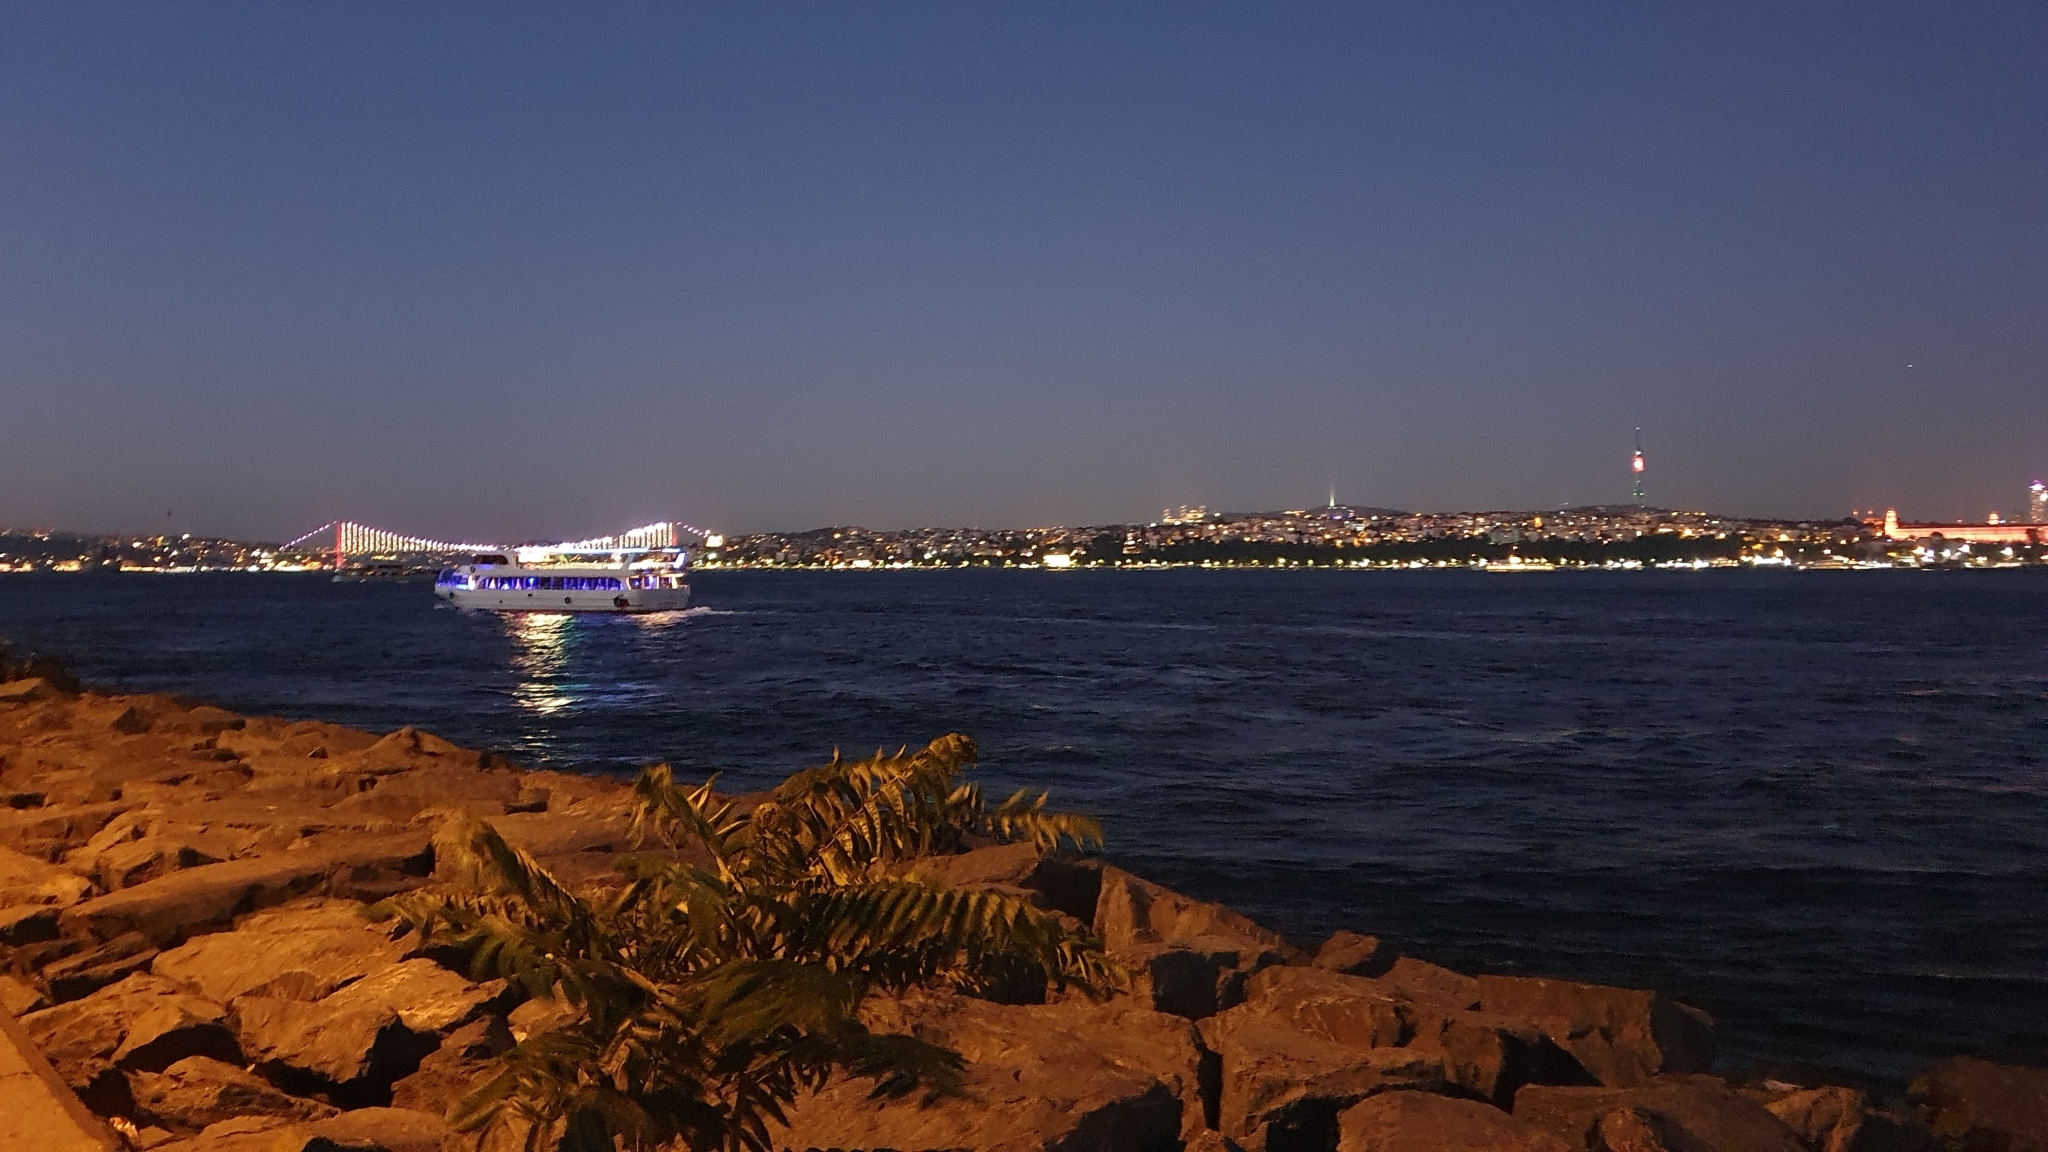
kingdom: Plantae
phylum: Tracheophyta
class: Magnoliopsida
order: Sapindales
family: Simaroubaceae
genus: Ailanthus
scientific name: Ailanthus altissima
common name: Tree-of-heaven
